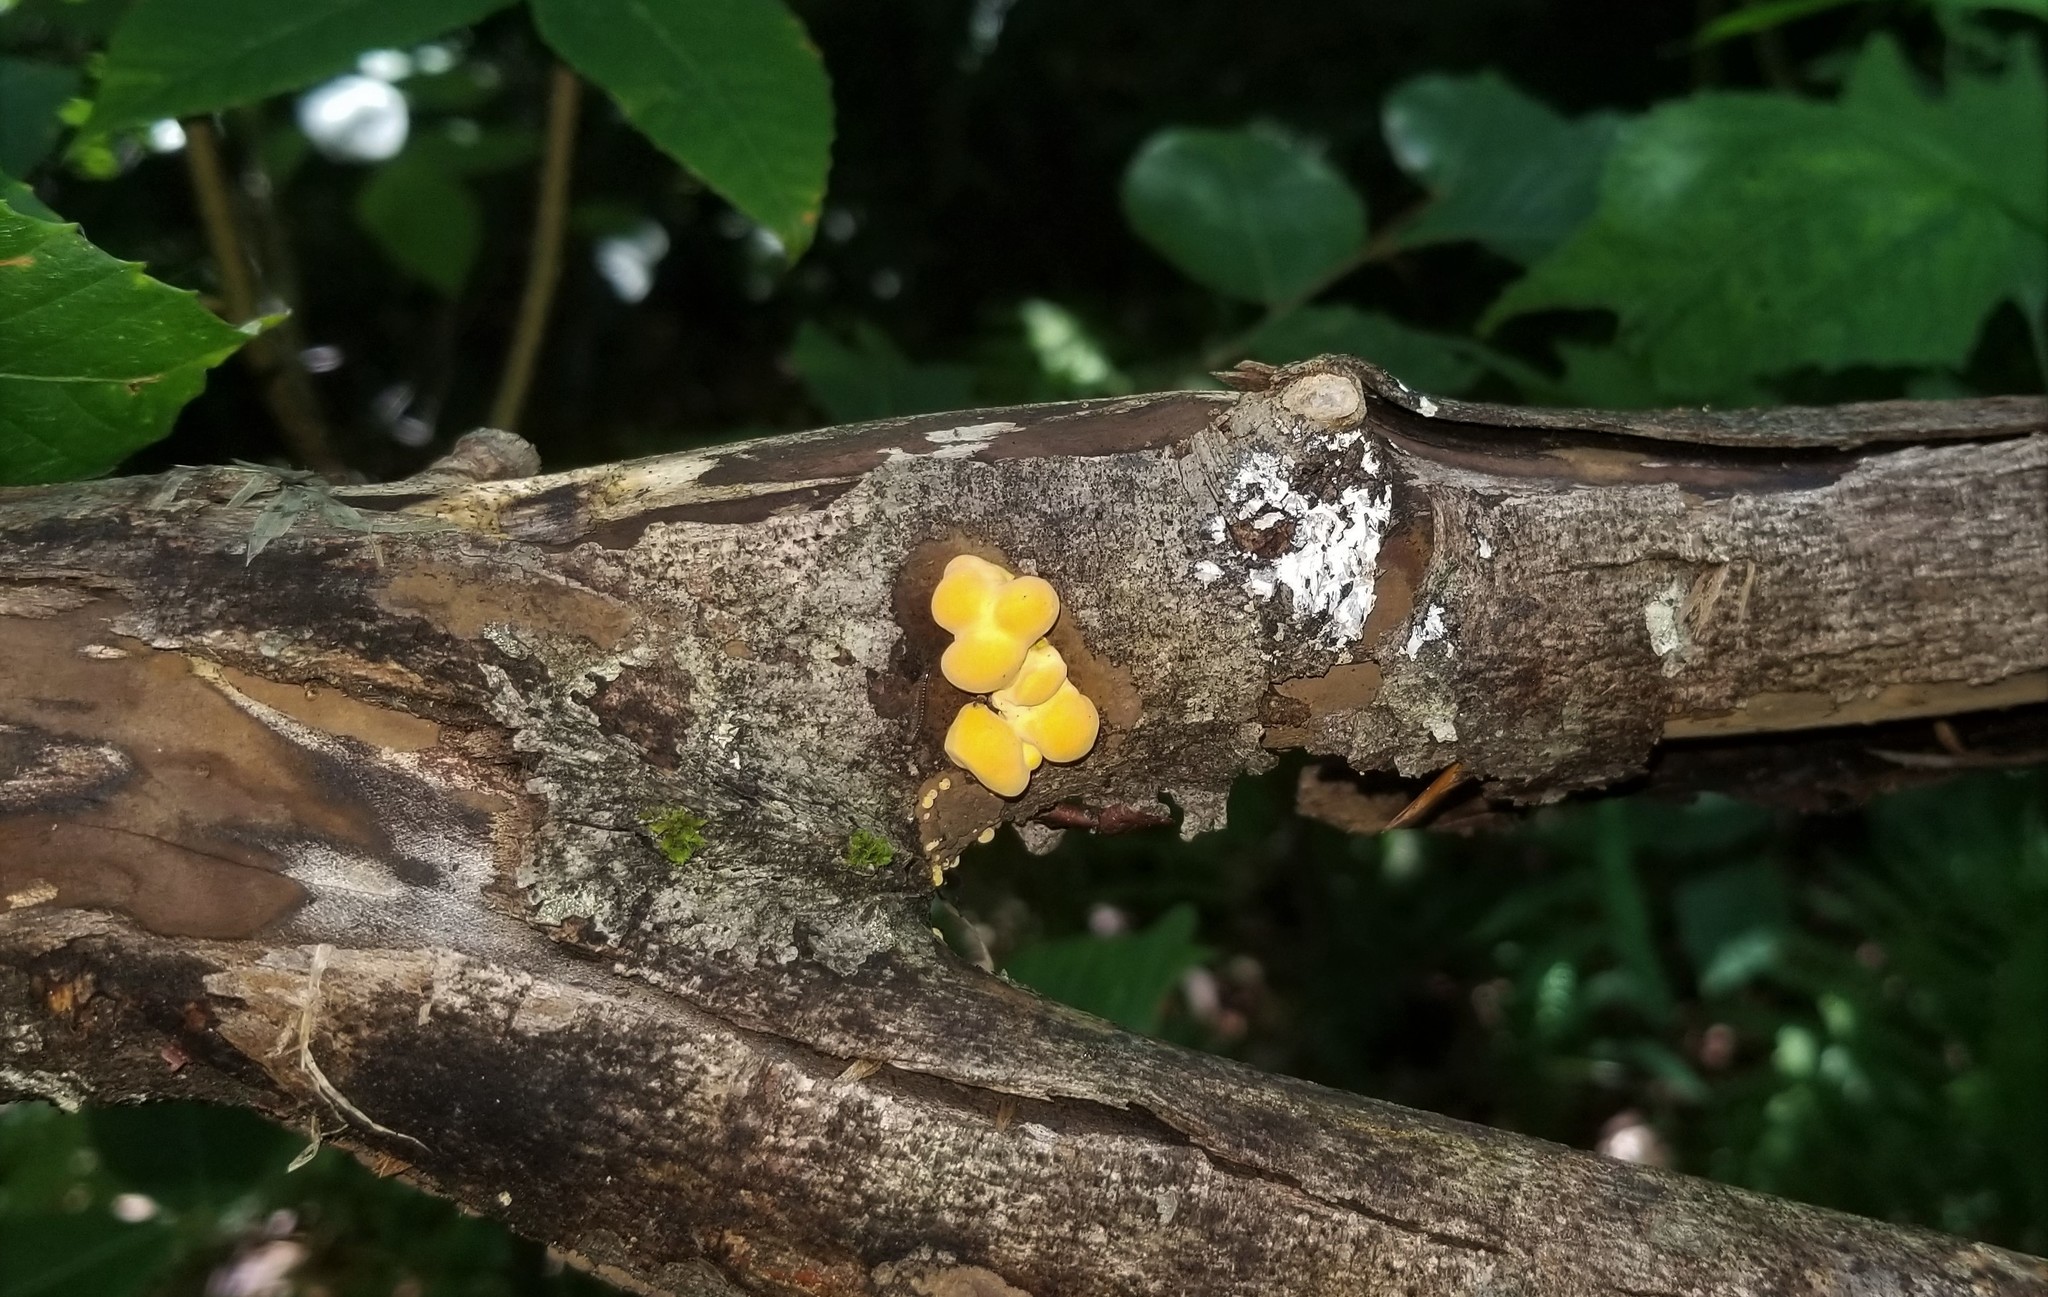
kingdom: Fungi
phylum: Ascomycota
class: Sordariomycetes
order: Xylariales
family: Hypoxylaceae
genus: Thuemenella
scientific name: Thuemenella cubispora
